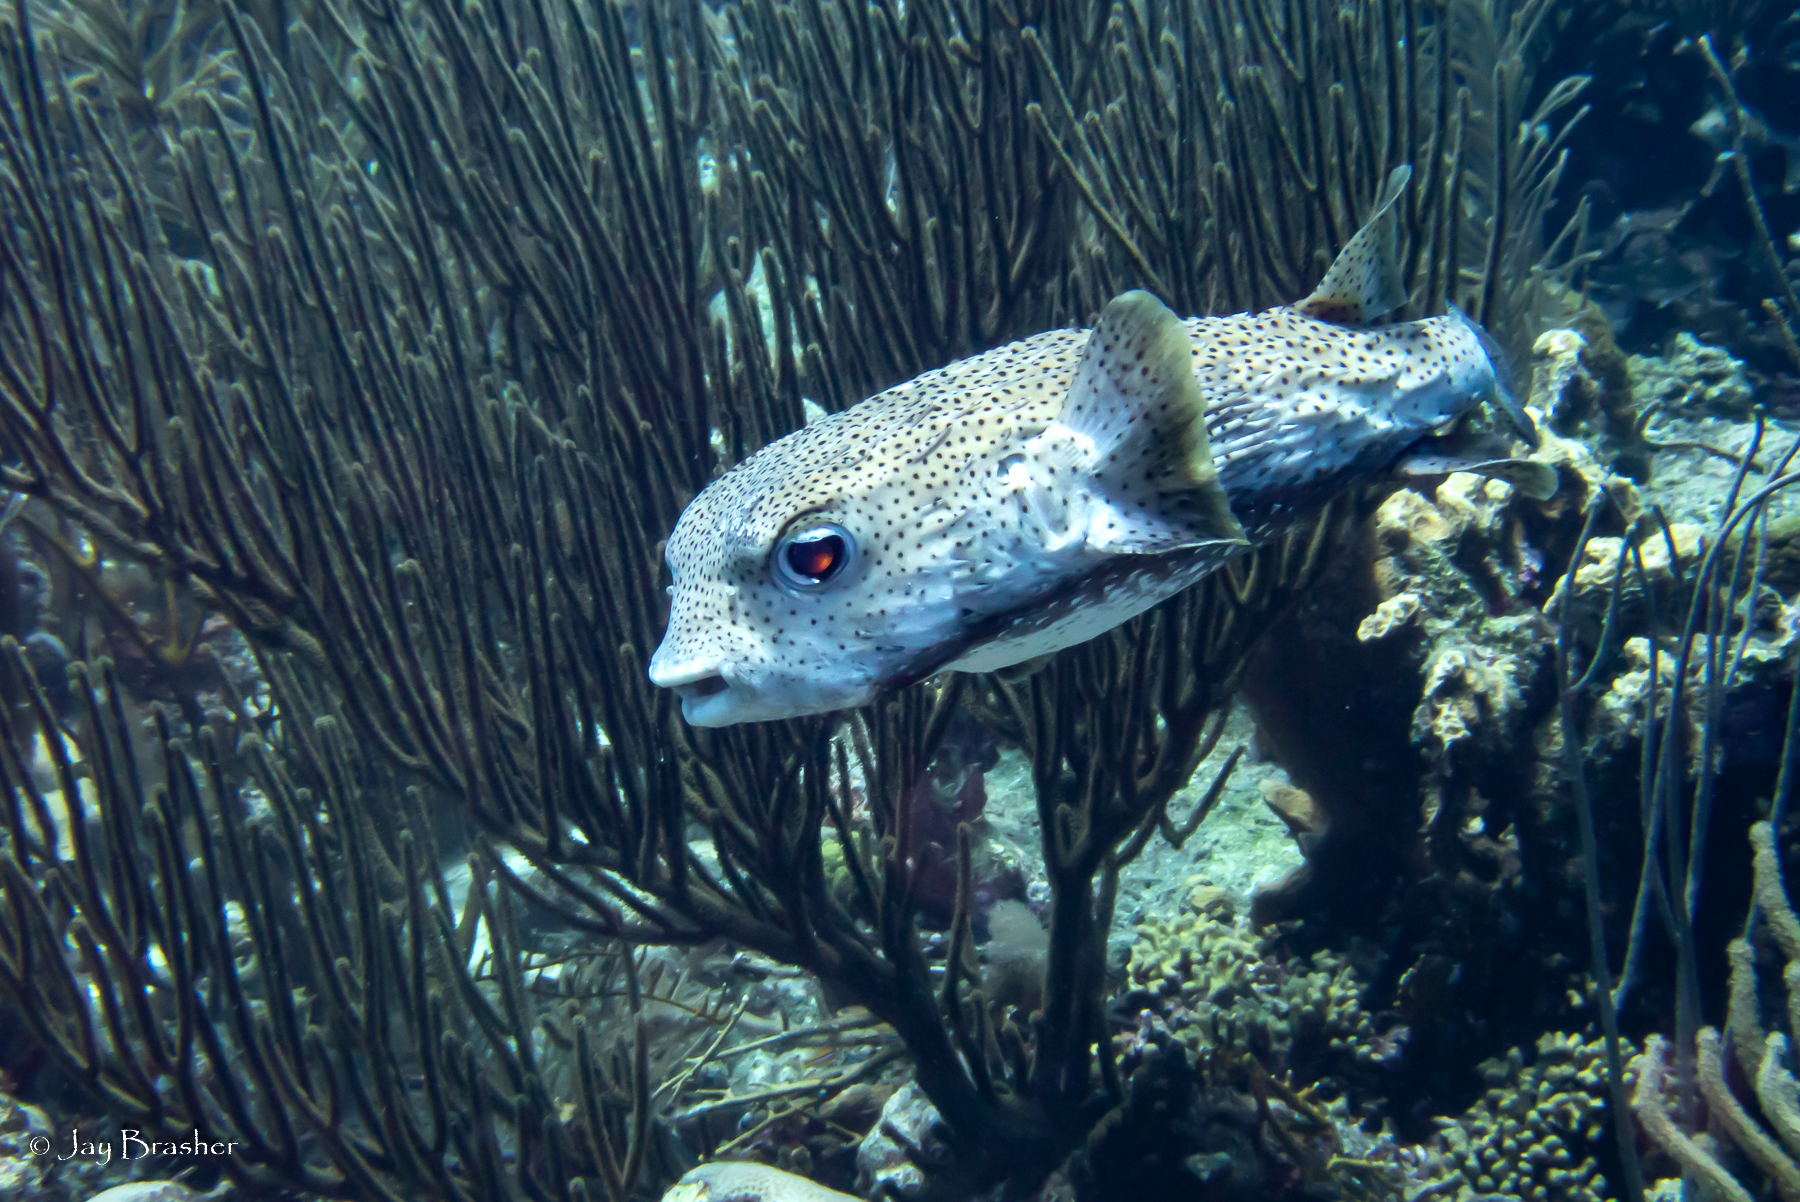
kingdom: Animalia
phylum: Chordata
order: Tetraodontiformes
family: Diodontidae
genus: Diodon
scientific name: Diodon hystrix
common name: Giant porcupinefish
